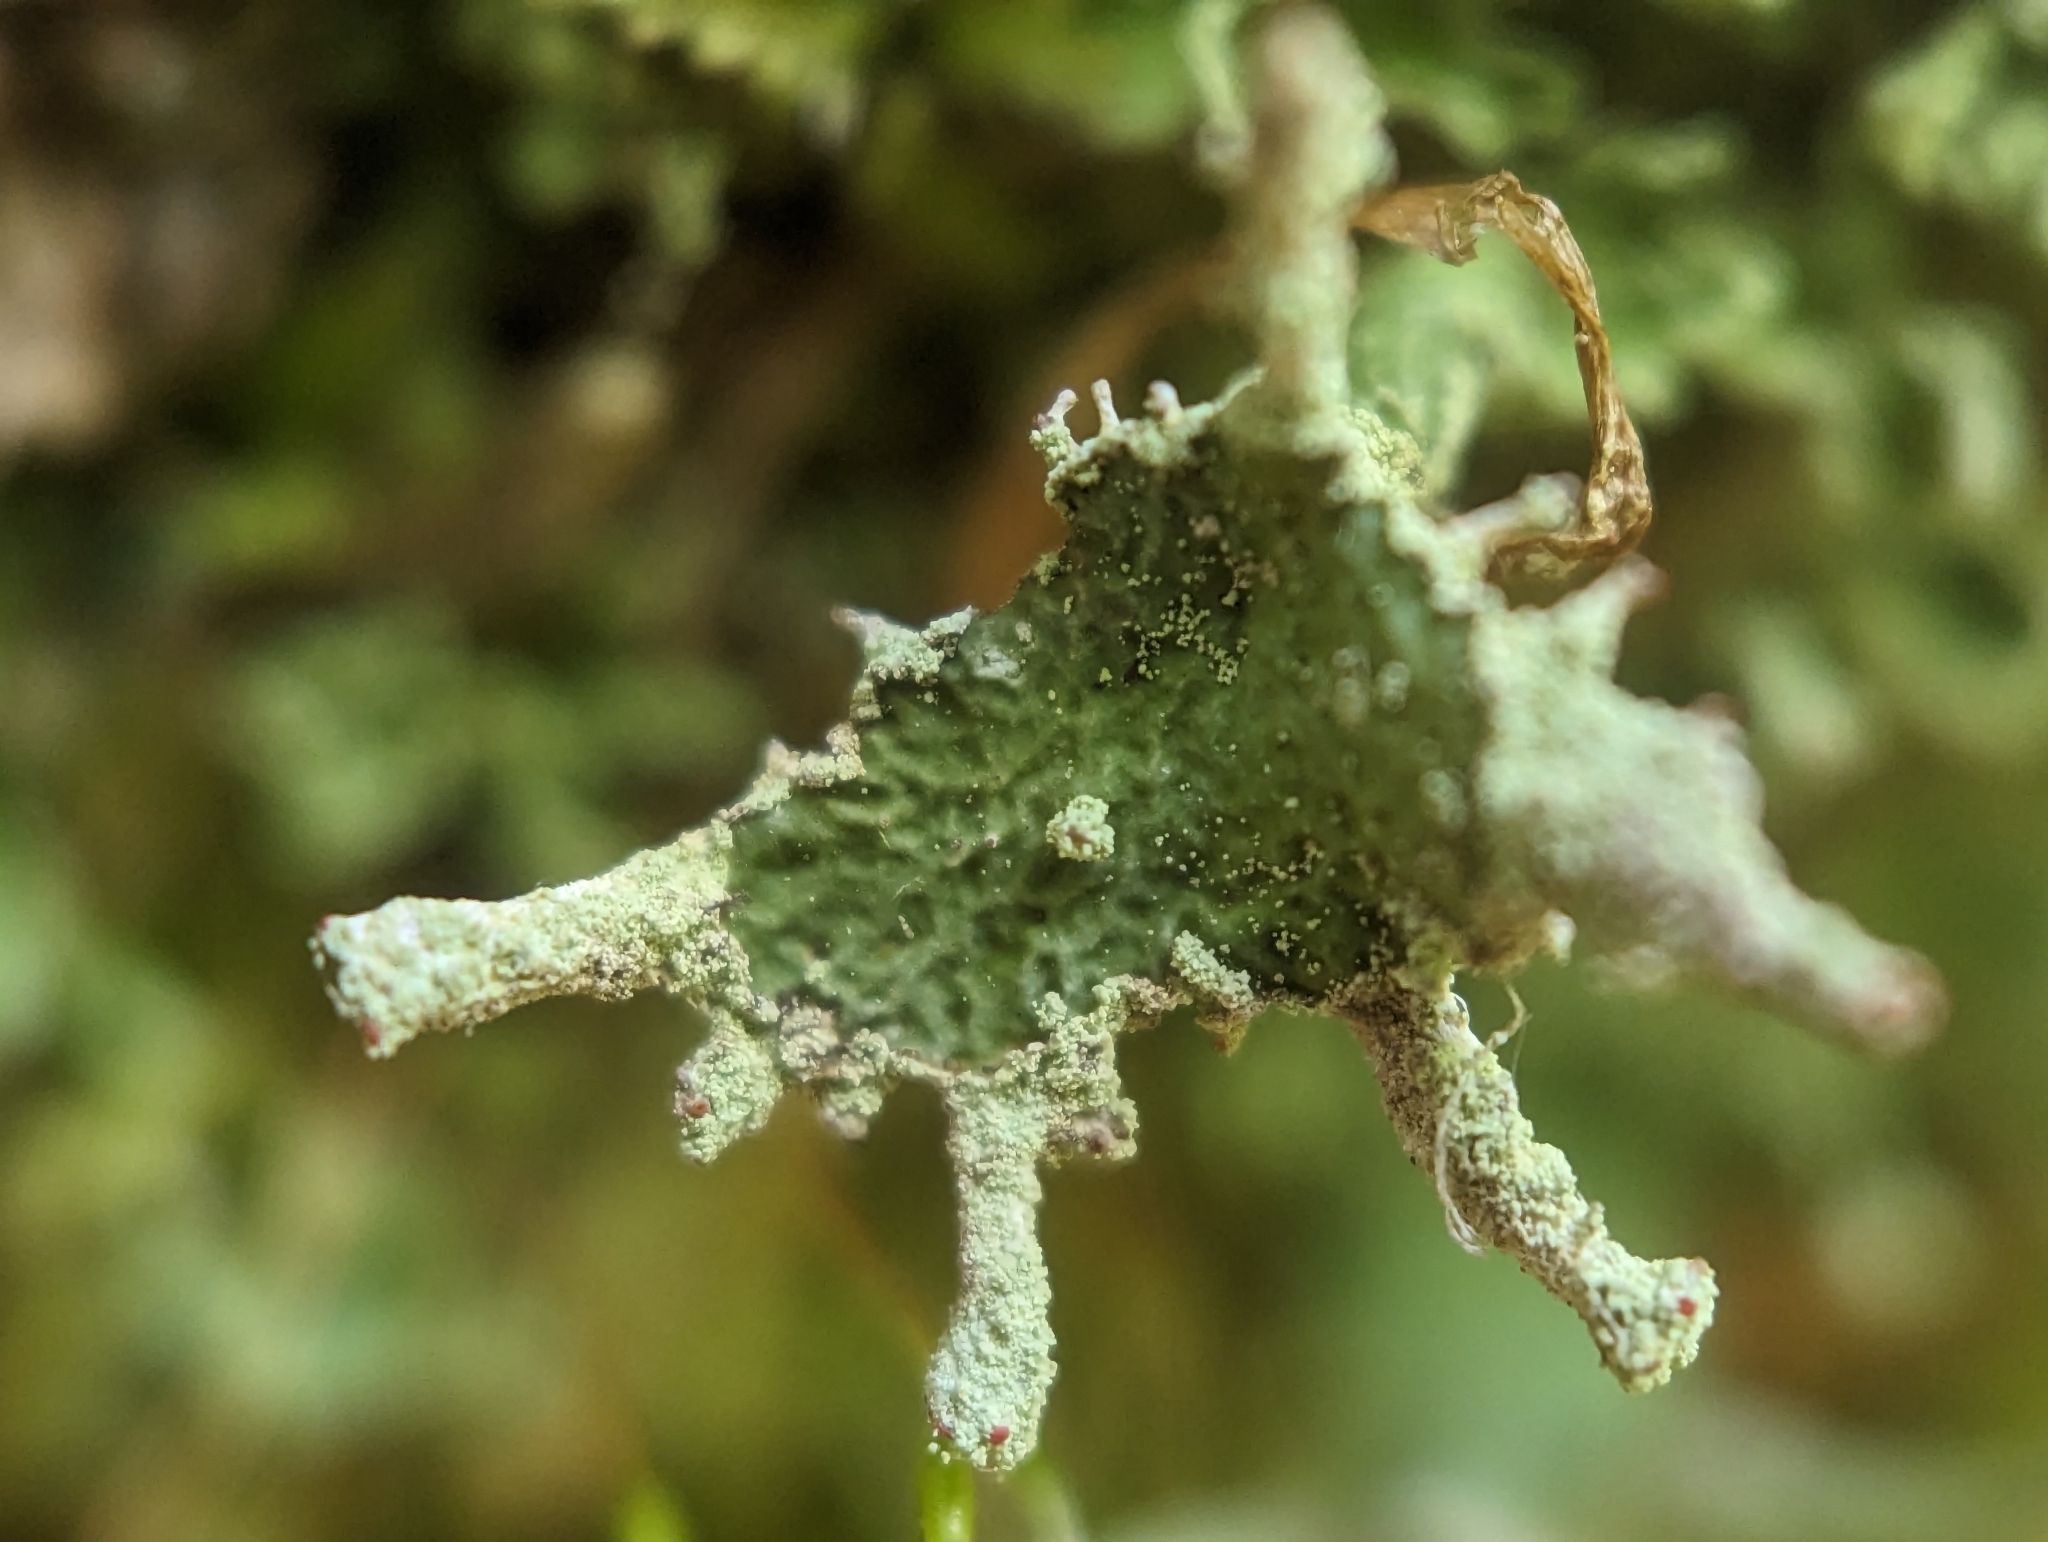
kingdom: Fungi
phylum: Ascomycota
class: Lecanoromycetes
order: Lecanorales
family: Cladoniaceae
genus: Cladonia
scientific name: Cladonia digitata
